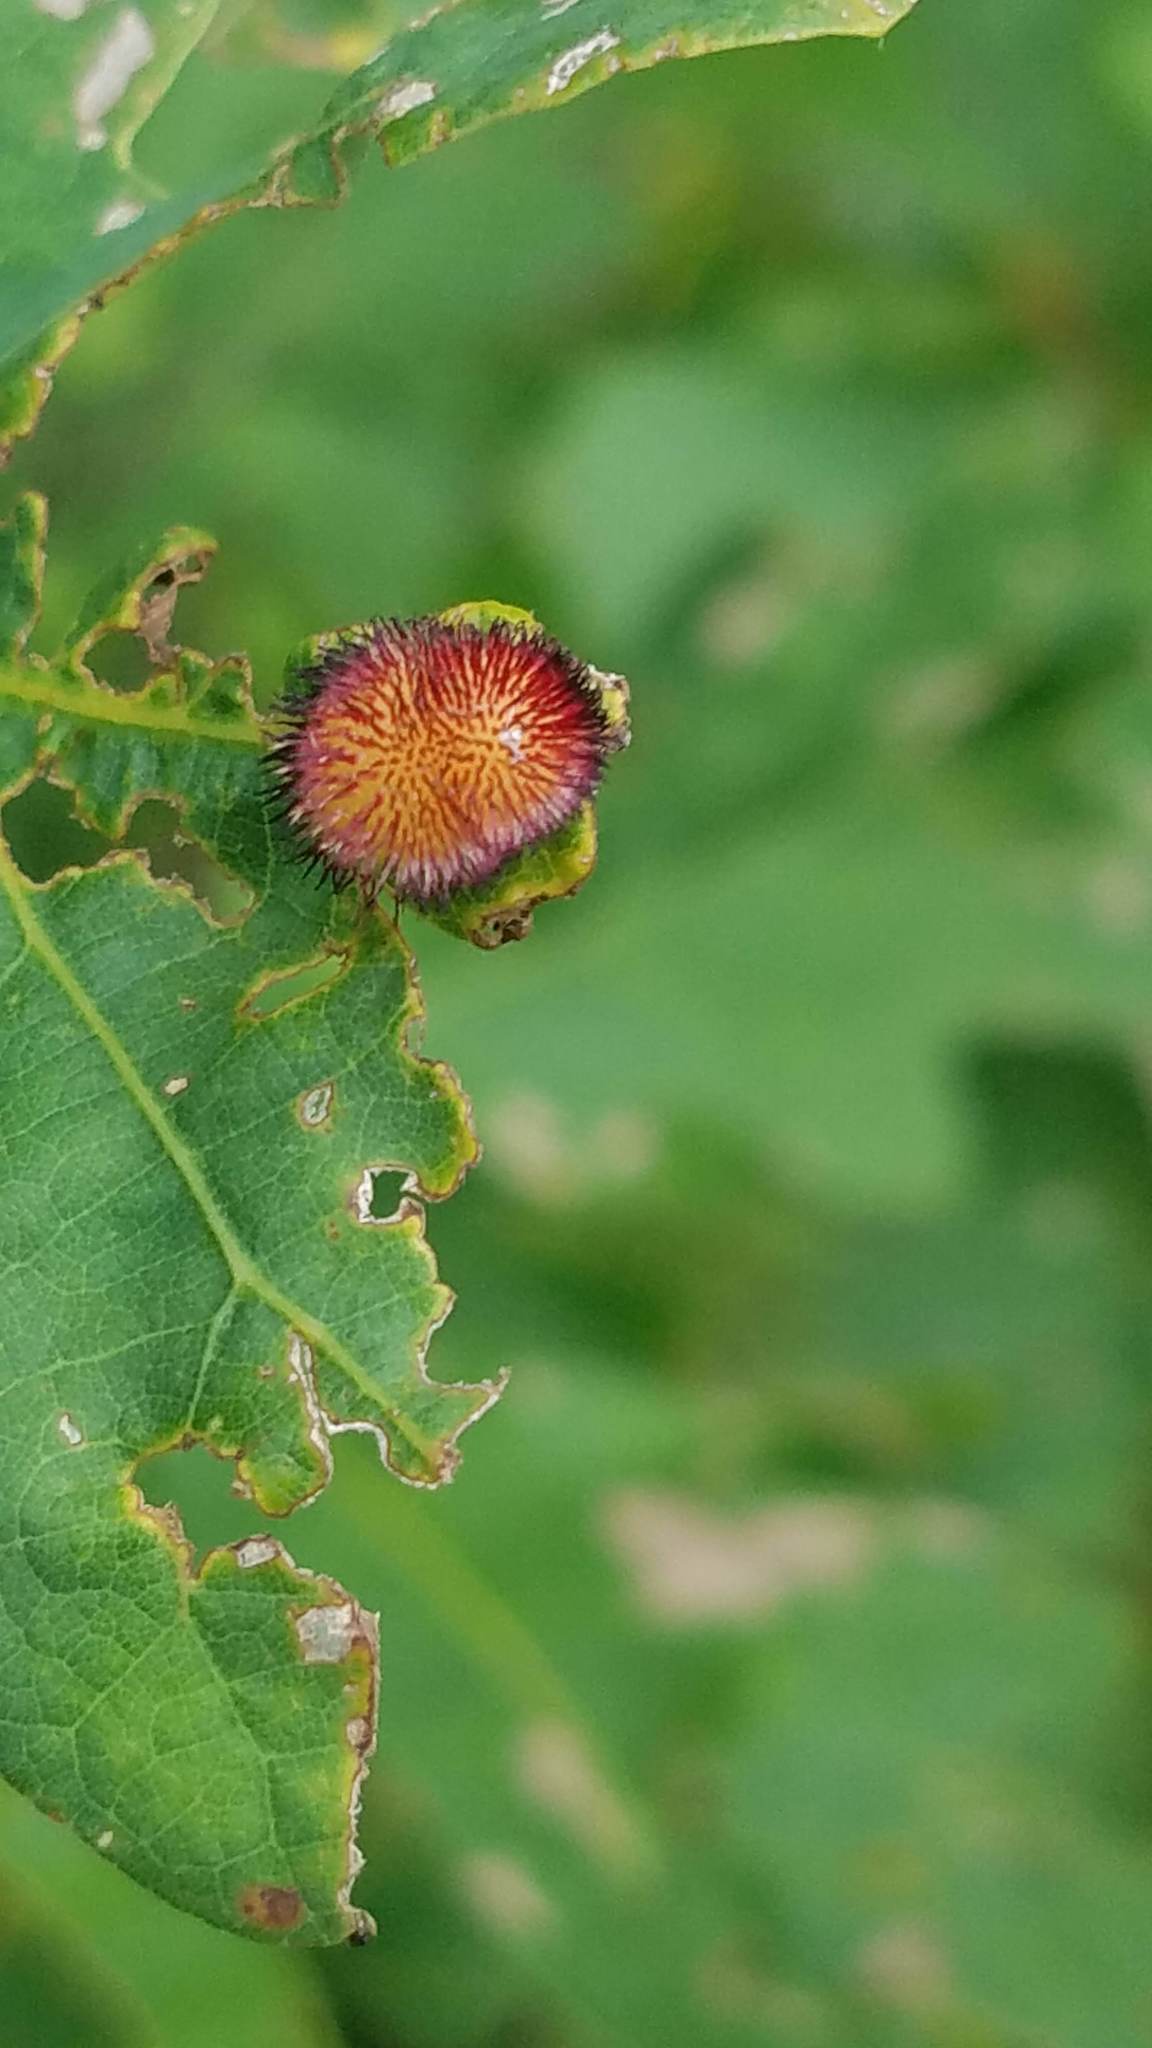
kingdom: Animalia
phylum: Arthropoda
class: Insecta
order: Hymenoptera
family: Cynipidae
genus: Acraspis
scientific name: Acraspis erinacei
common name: Hedgehog gall wasp
